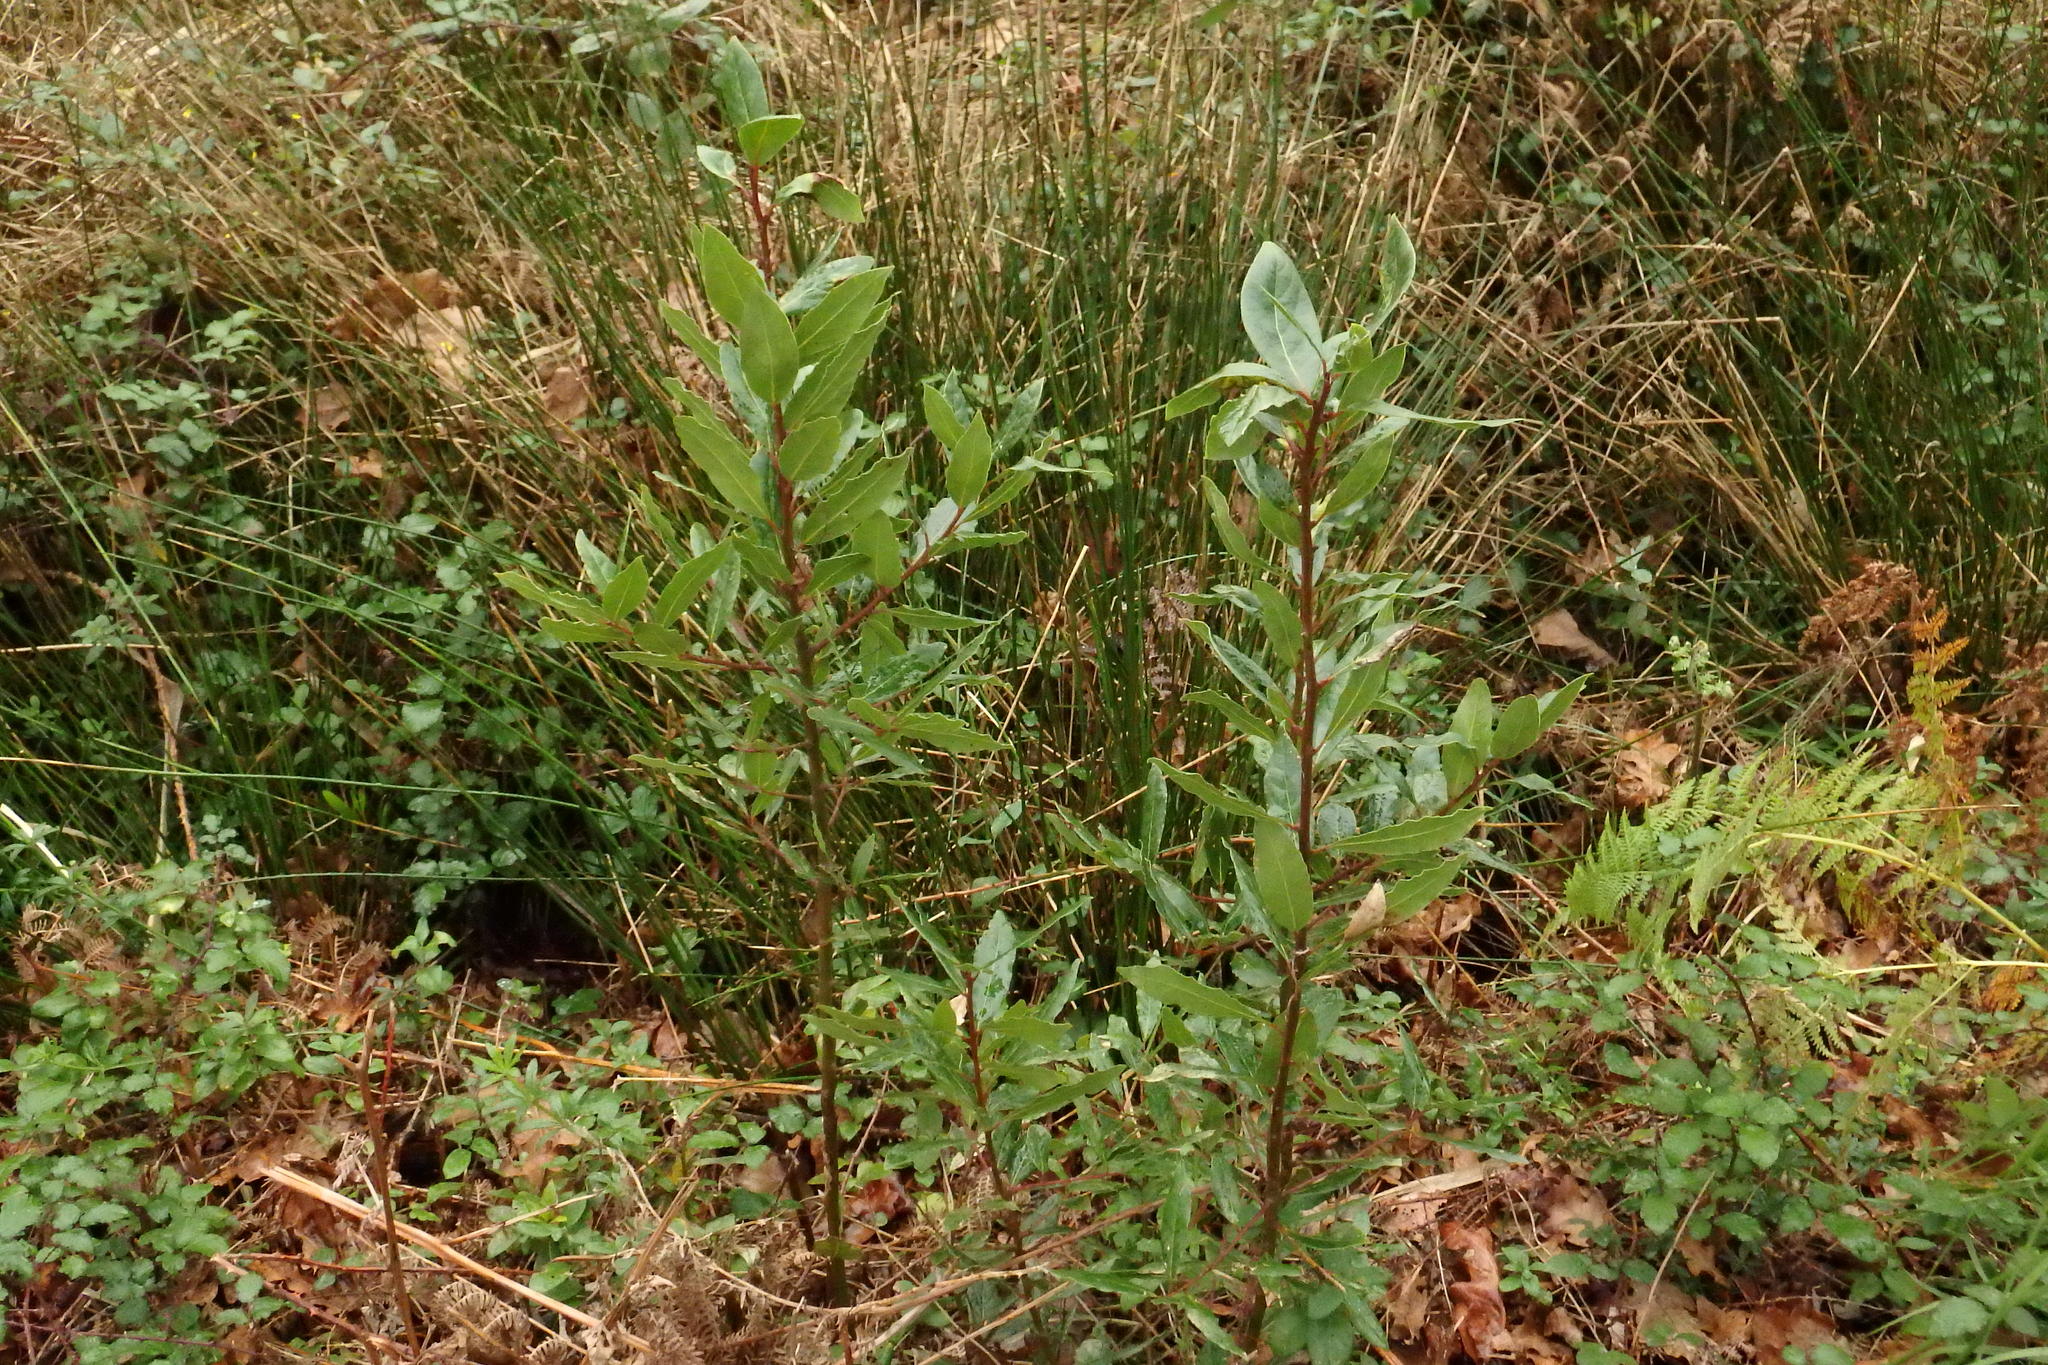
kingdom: Plantae
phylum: Tracheophyta
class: Magnoliopsida
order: Laurales
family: Lauraceae
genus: Laurus
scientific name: Laurus nobilis
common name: Bay
